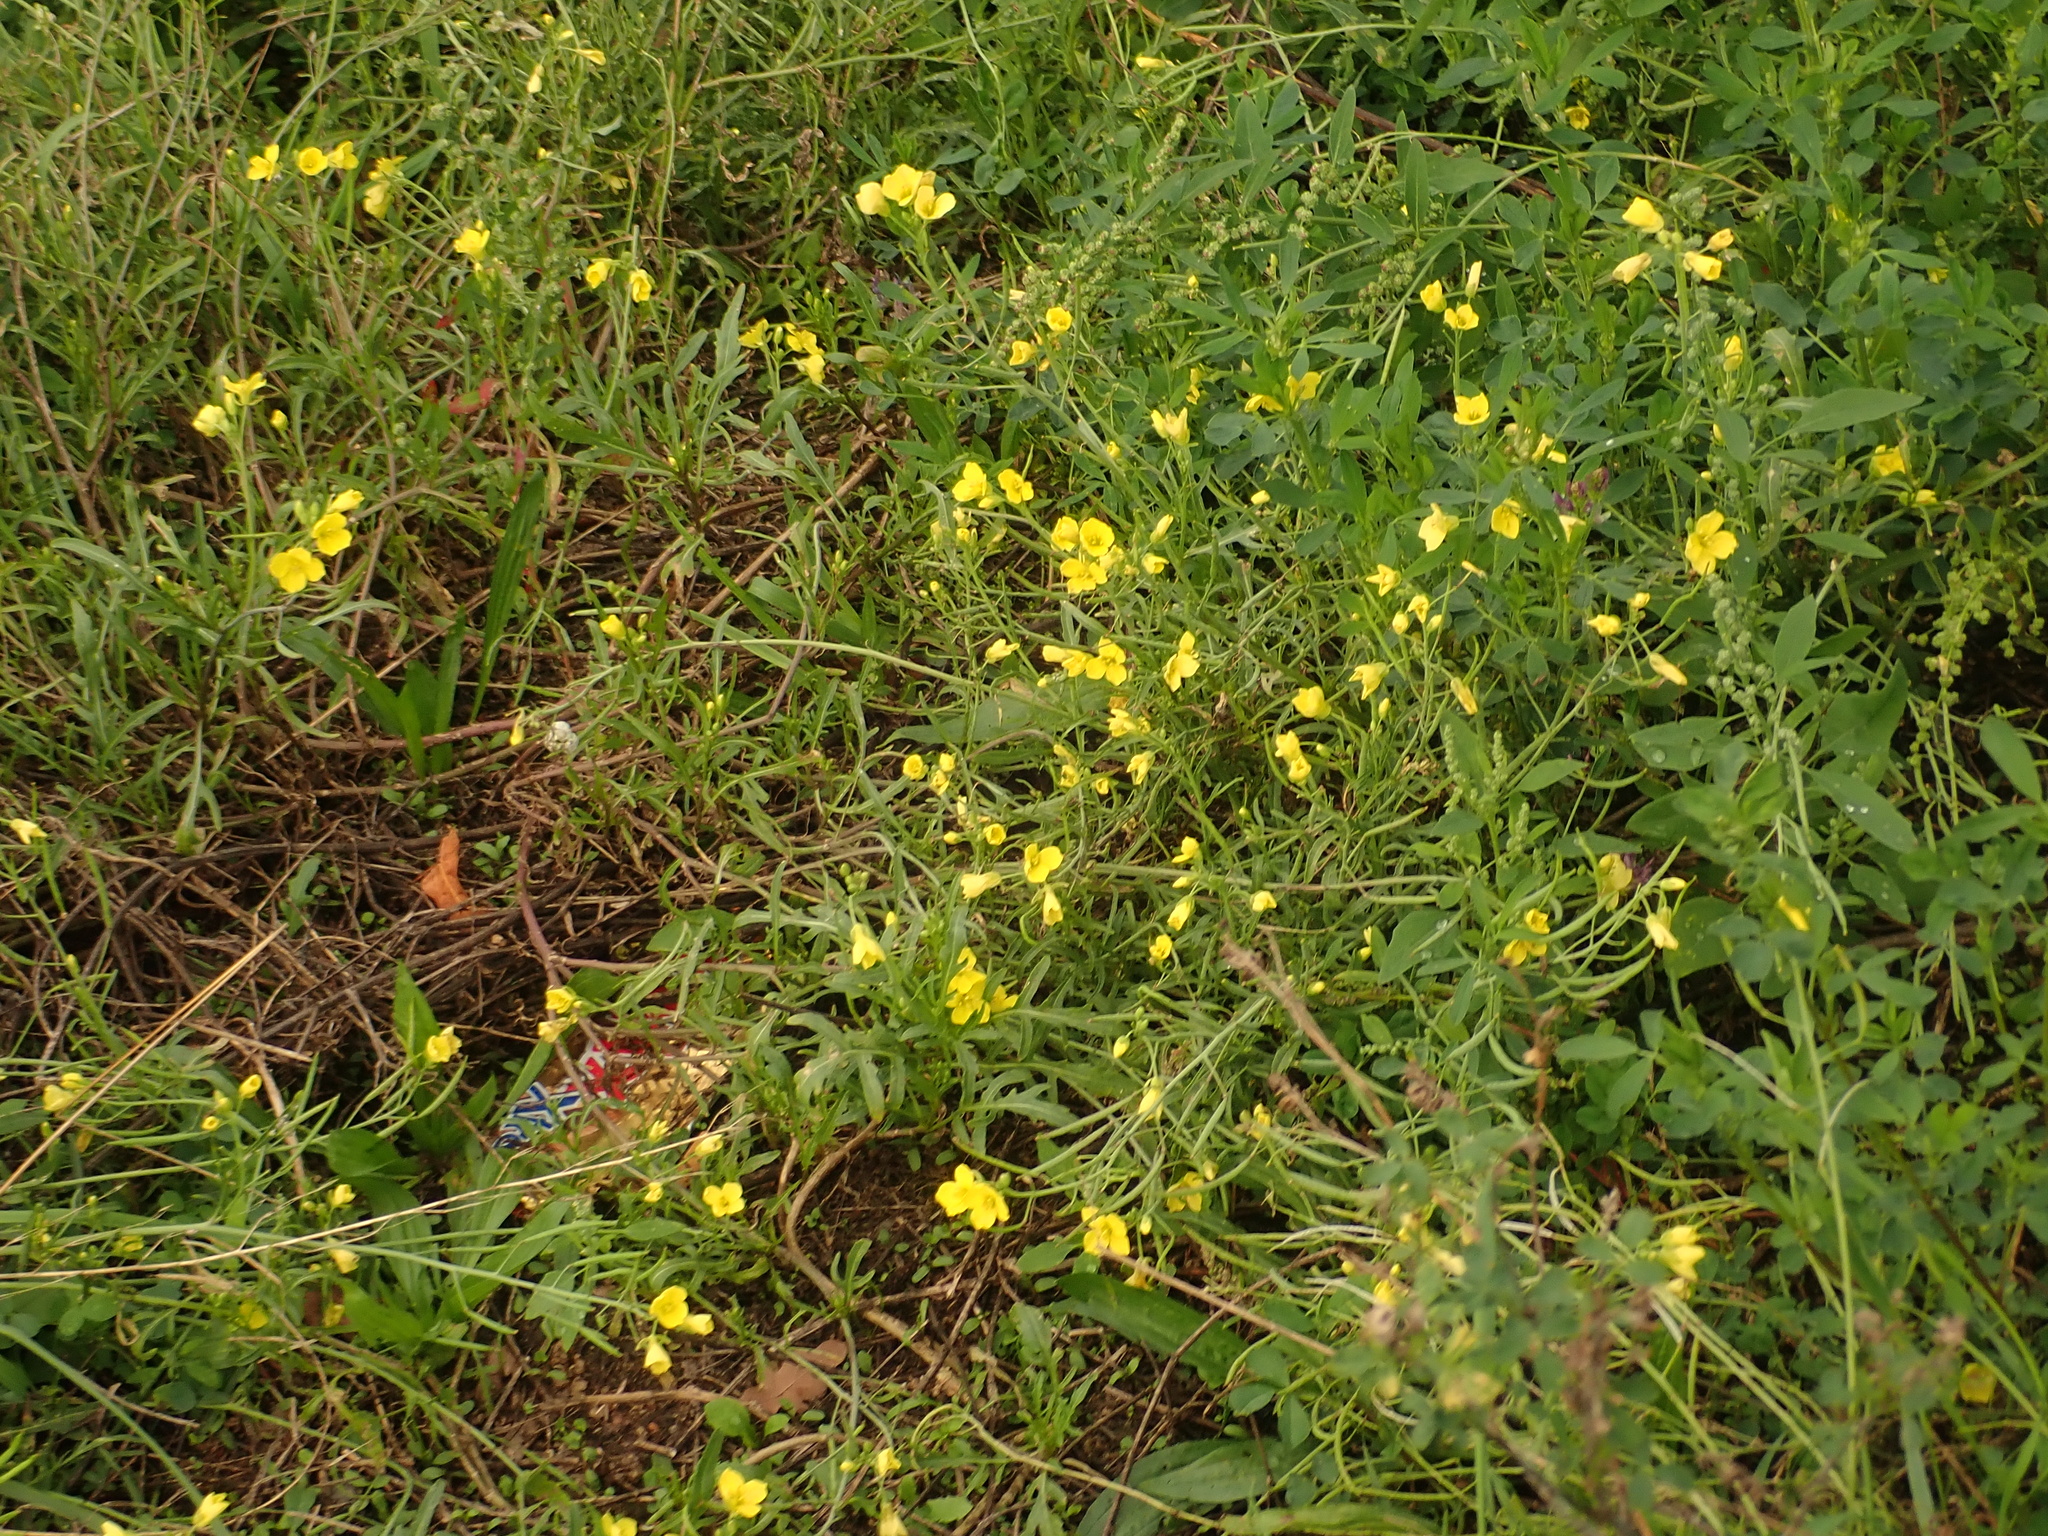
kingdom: Plantae
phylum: Tracheophyta
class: Magnoliopsida
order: Brassicales
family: Brassicaceae
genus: Diplotaxis
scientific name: Diplotaxis tenuifolia
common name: Perennial wall-rocket
